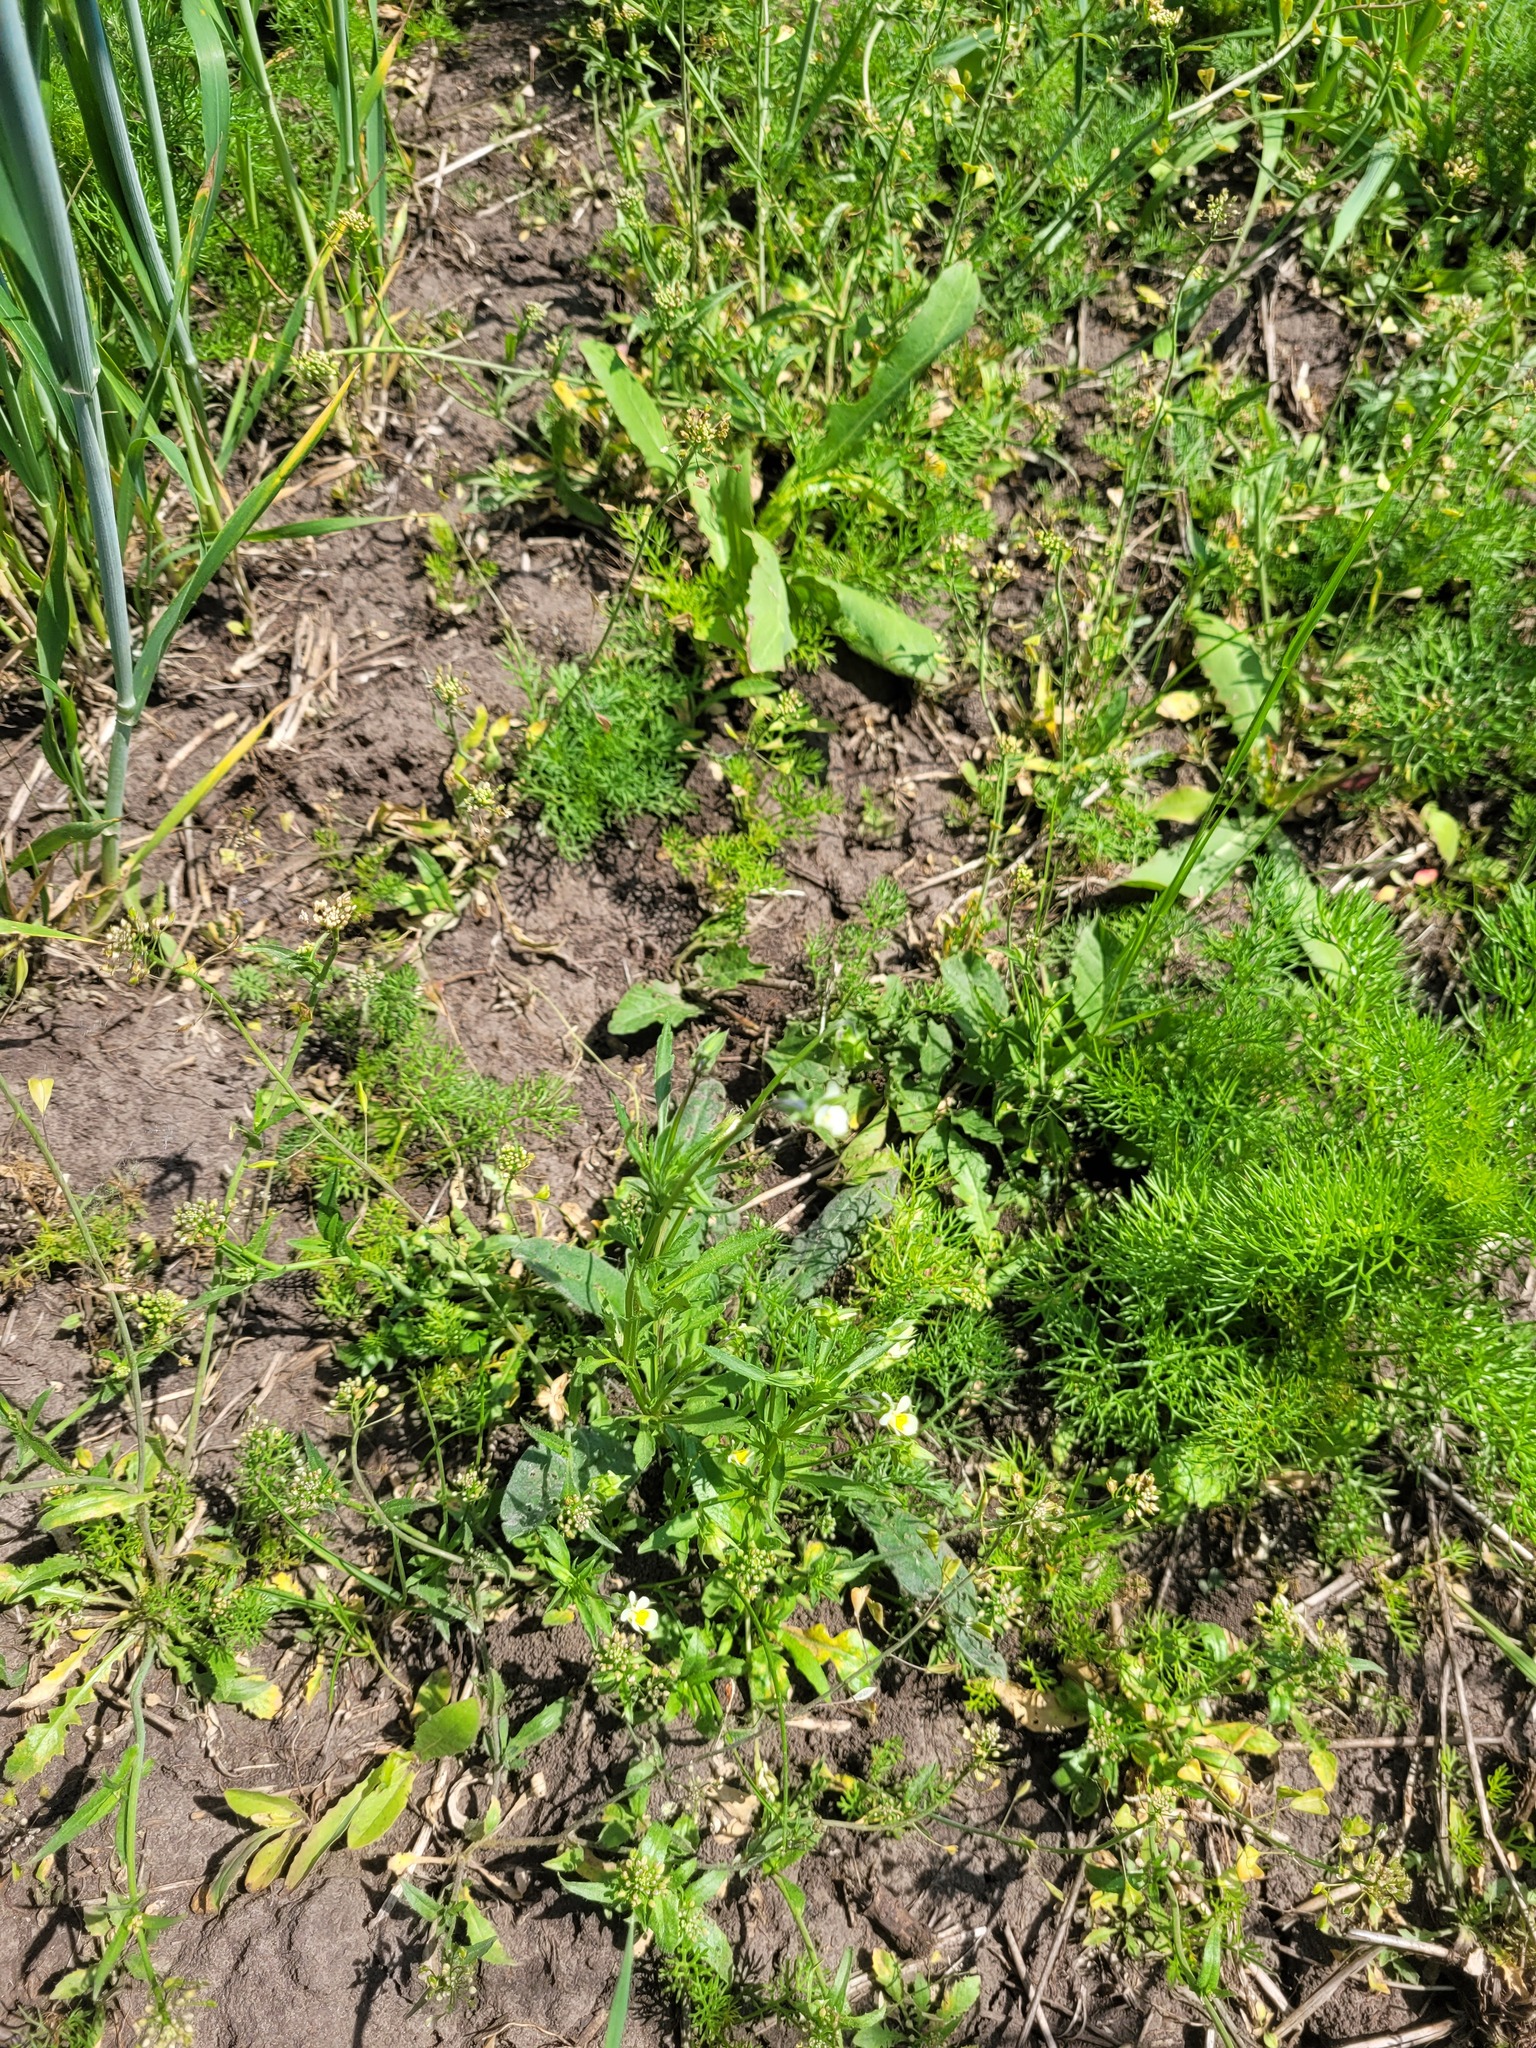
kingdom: Plantae
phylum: Tracheophyta
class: Magnoliopsida
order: Malpighiales
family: Violaceae
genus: Viola
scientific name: Viola arvensis
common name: Field pansy
